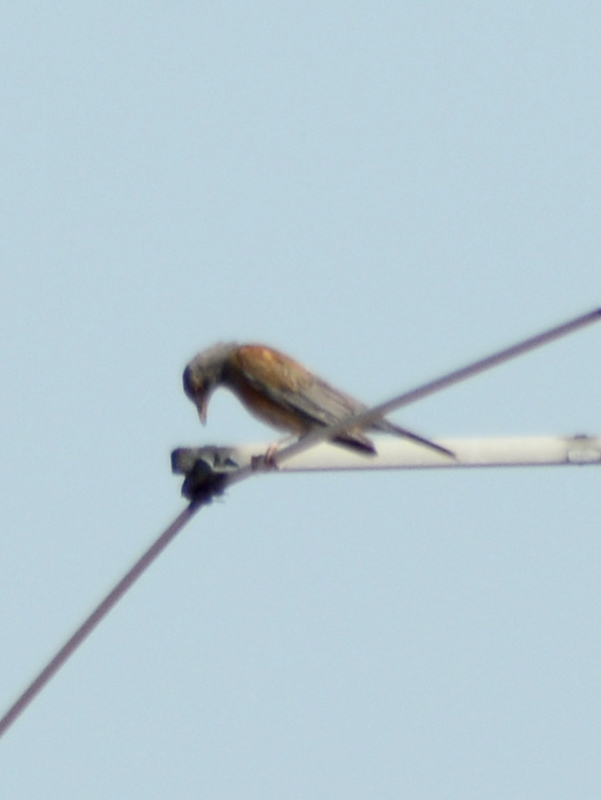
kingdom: Animalia
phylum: Chordata
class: Aves
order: Passeriformes
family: Turdidae
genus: Turdus
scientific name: Turdus rufopalliatus
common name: Rufous-backed robin
